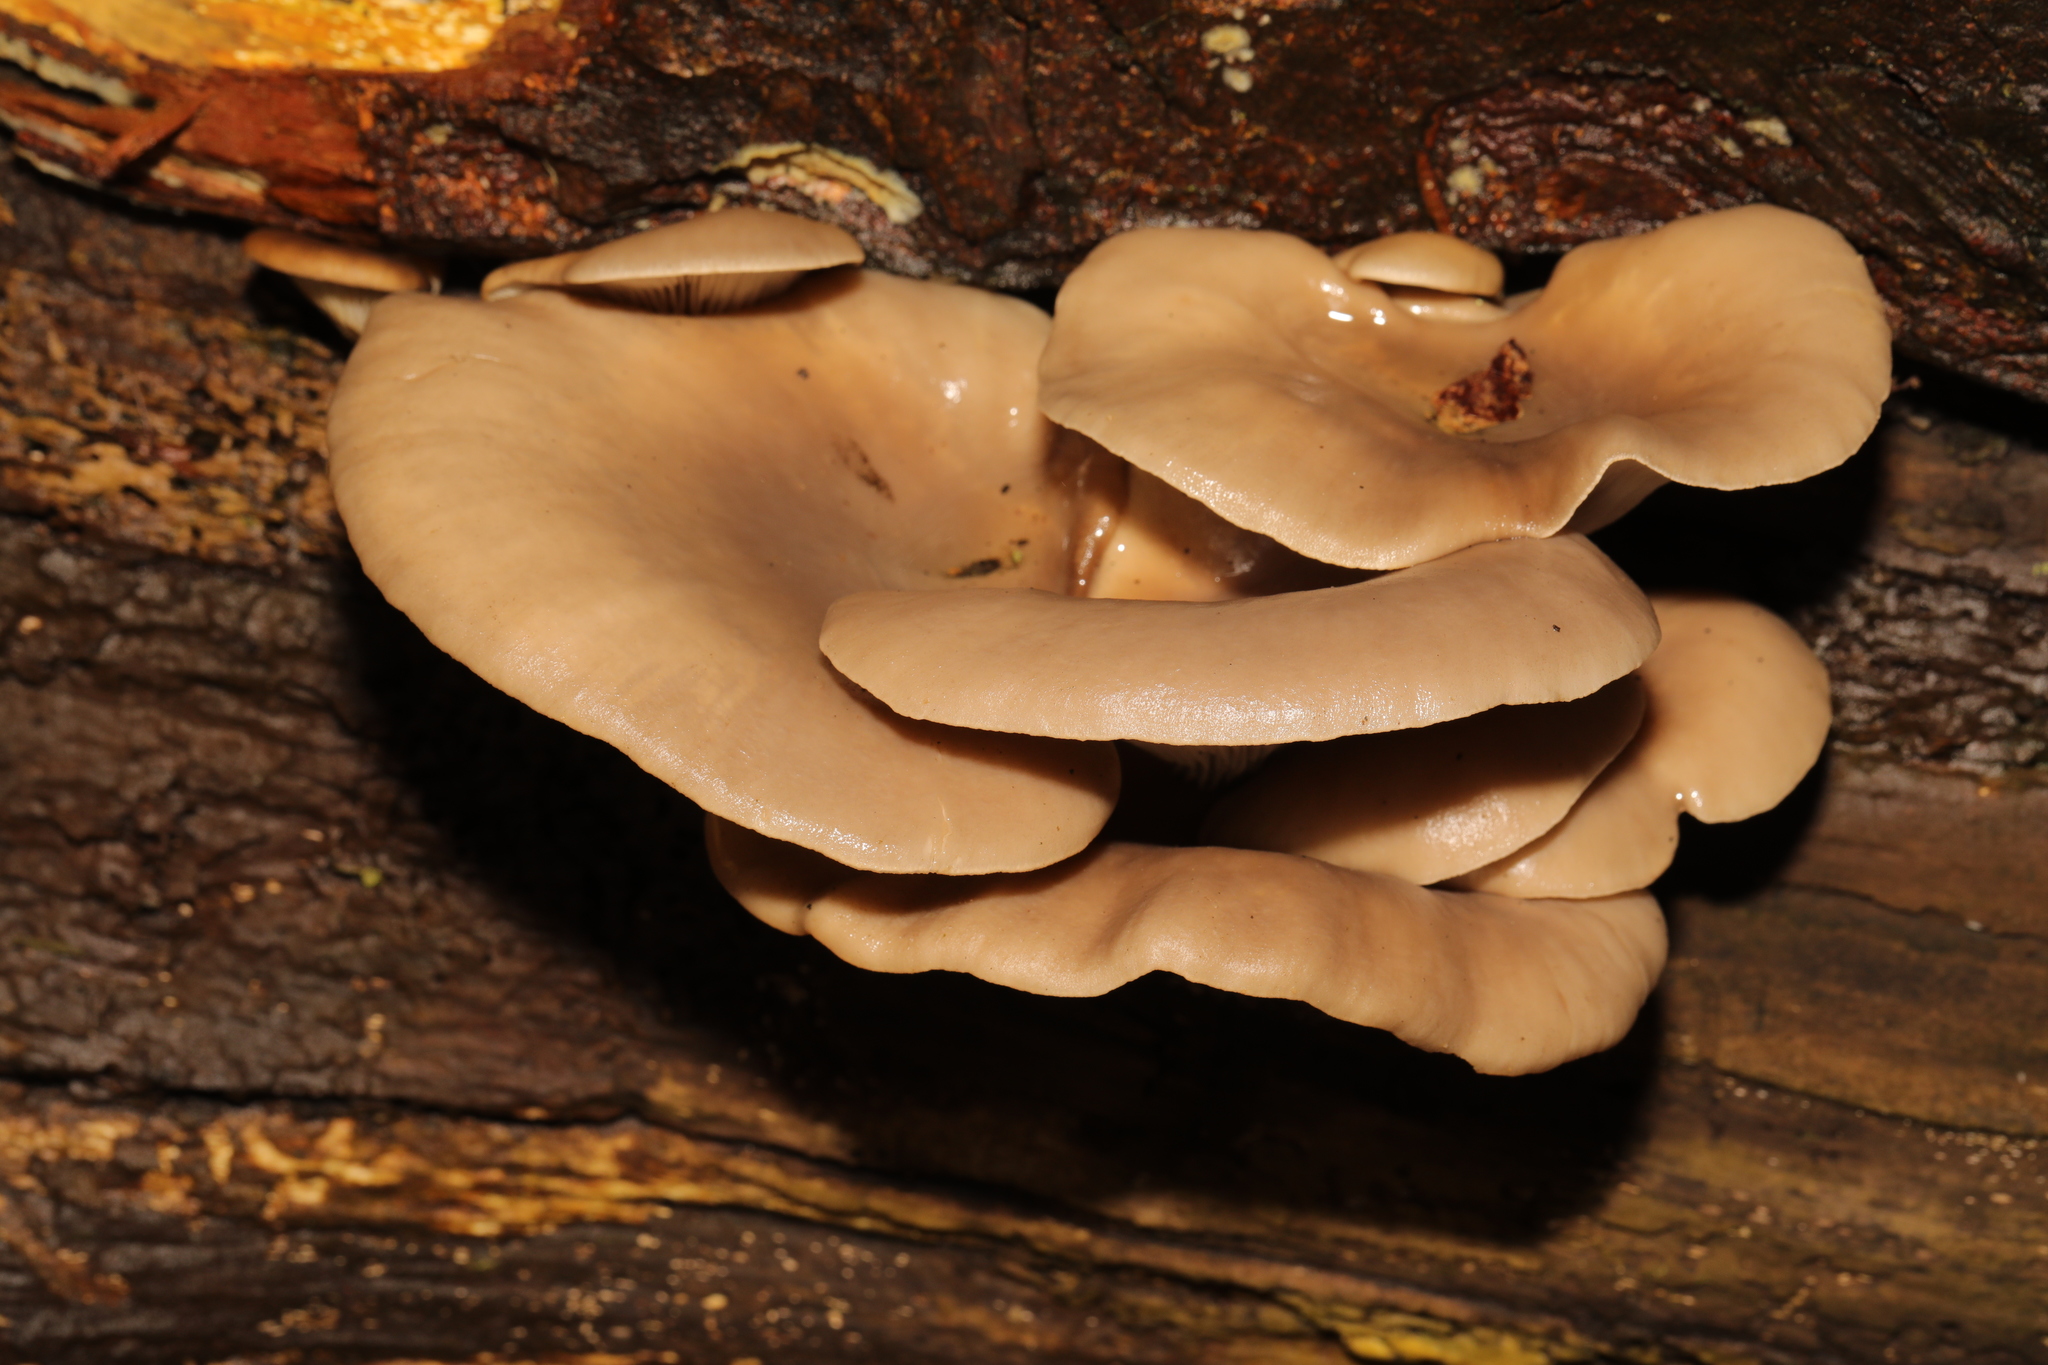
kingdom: Fungi
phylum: Basidiomycota
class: Agaricomycetes
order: Agaricales
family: Pleurotaceae
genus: Pleurotus
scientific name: Pleurotus ostreatus
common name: Oyster mushroom
